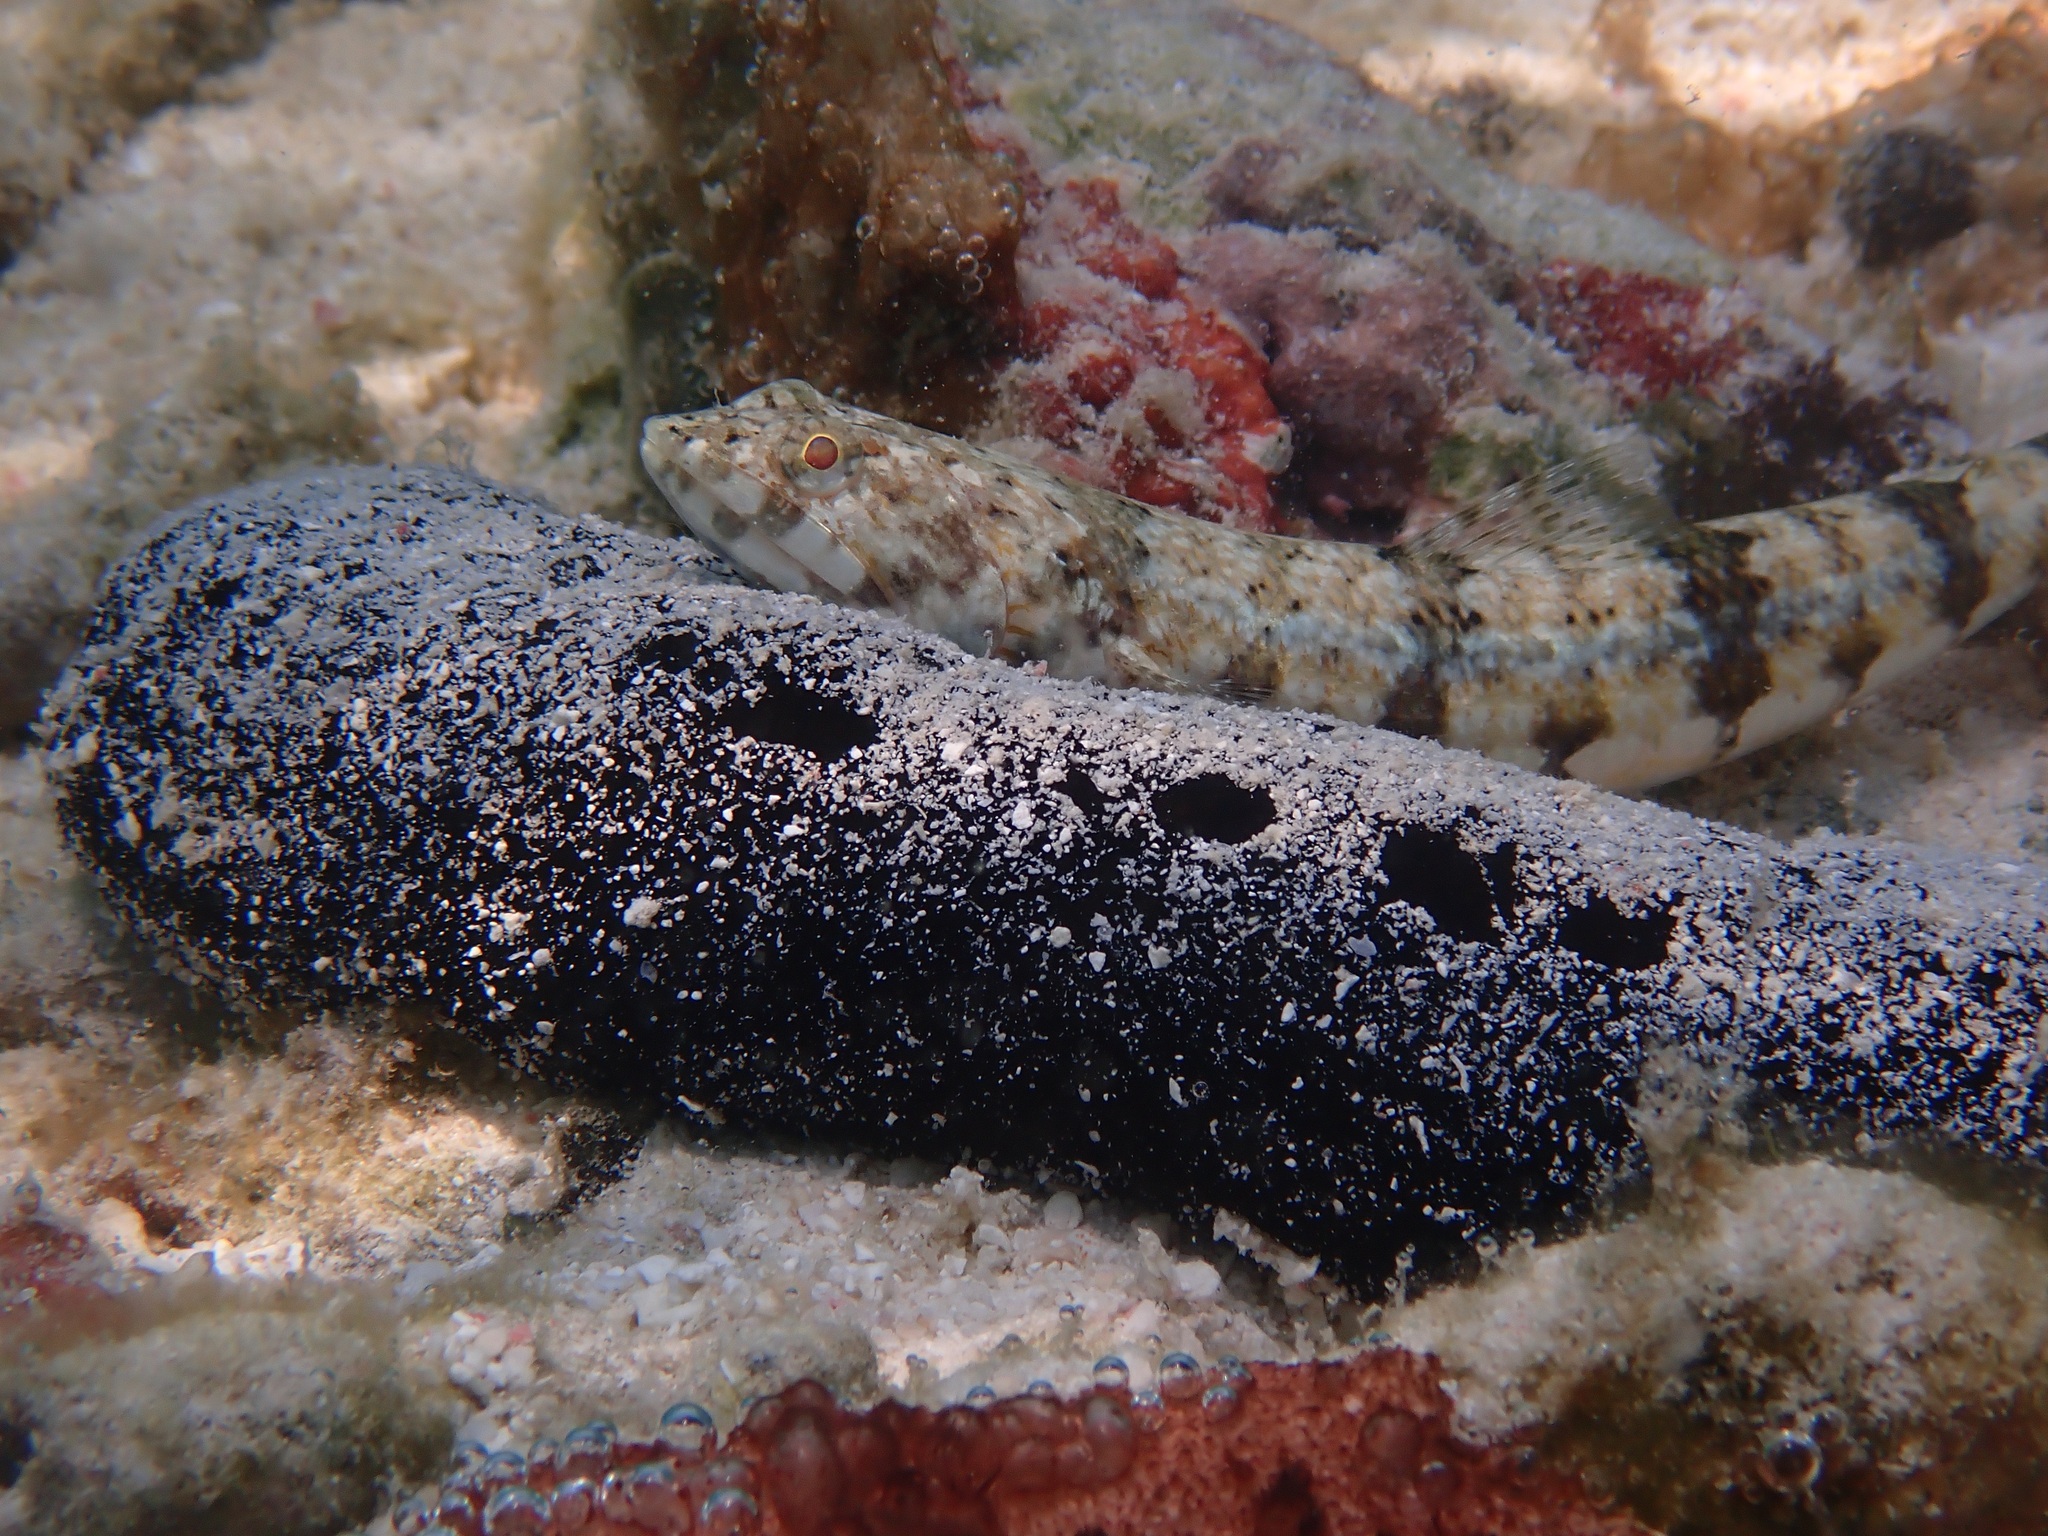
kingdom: Animalia
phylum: Chordata
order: Aulopiformes
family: Synodontidae
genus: Synodus
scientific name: Synodus dermatogenys
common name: Banded lizardfish
